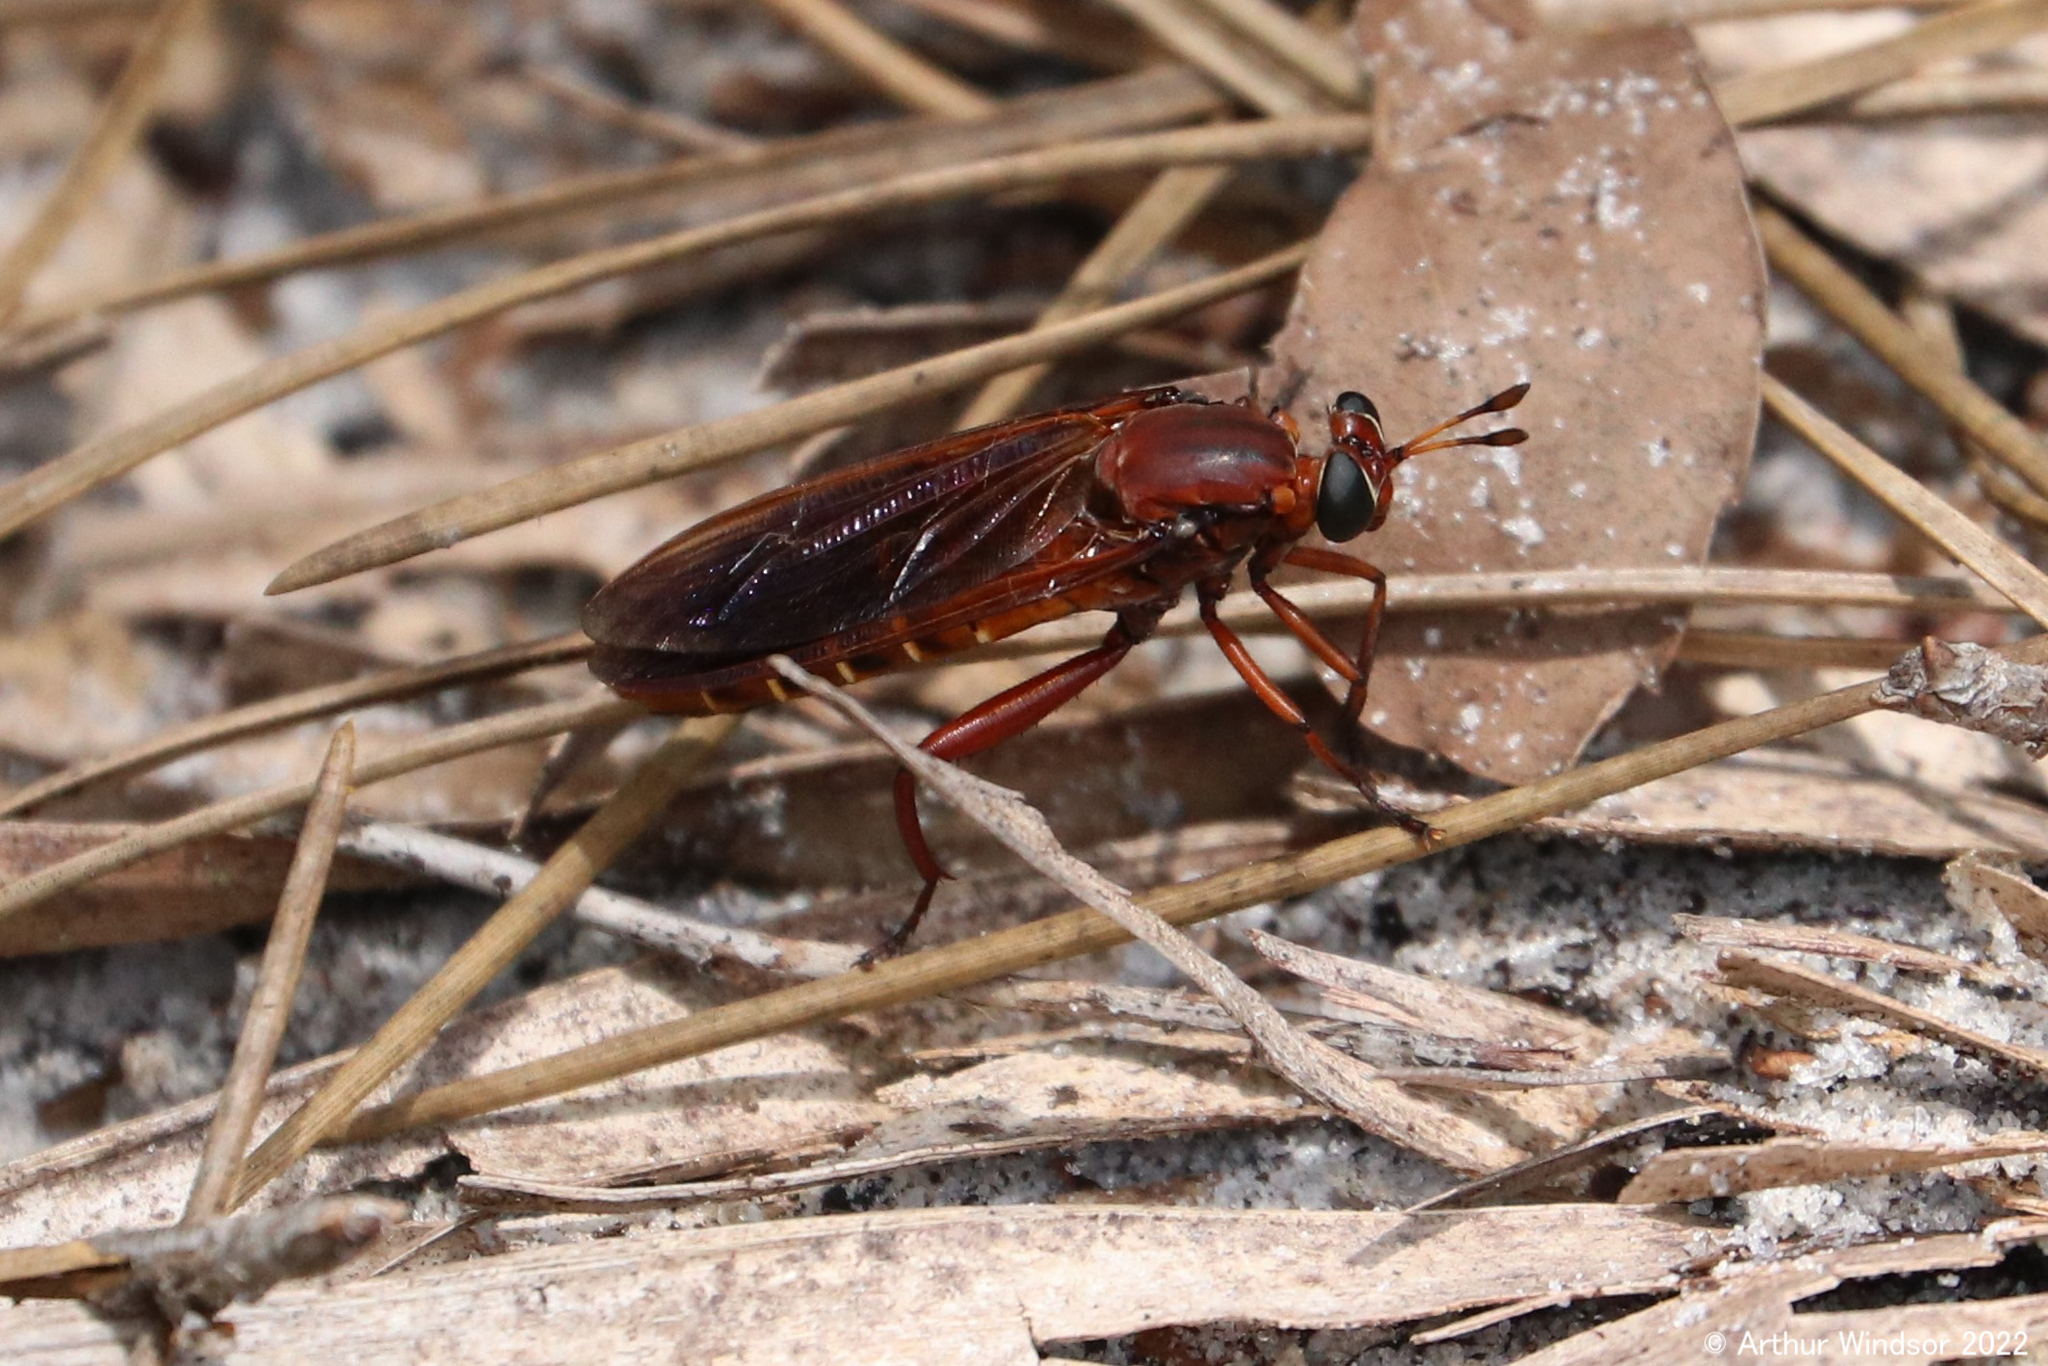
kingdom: Animalia
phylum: Arthropoda
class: Insecta
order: Diptera
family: Mydidae
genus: Mydas
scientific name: Mydas maculiventris
